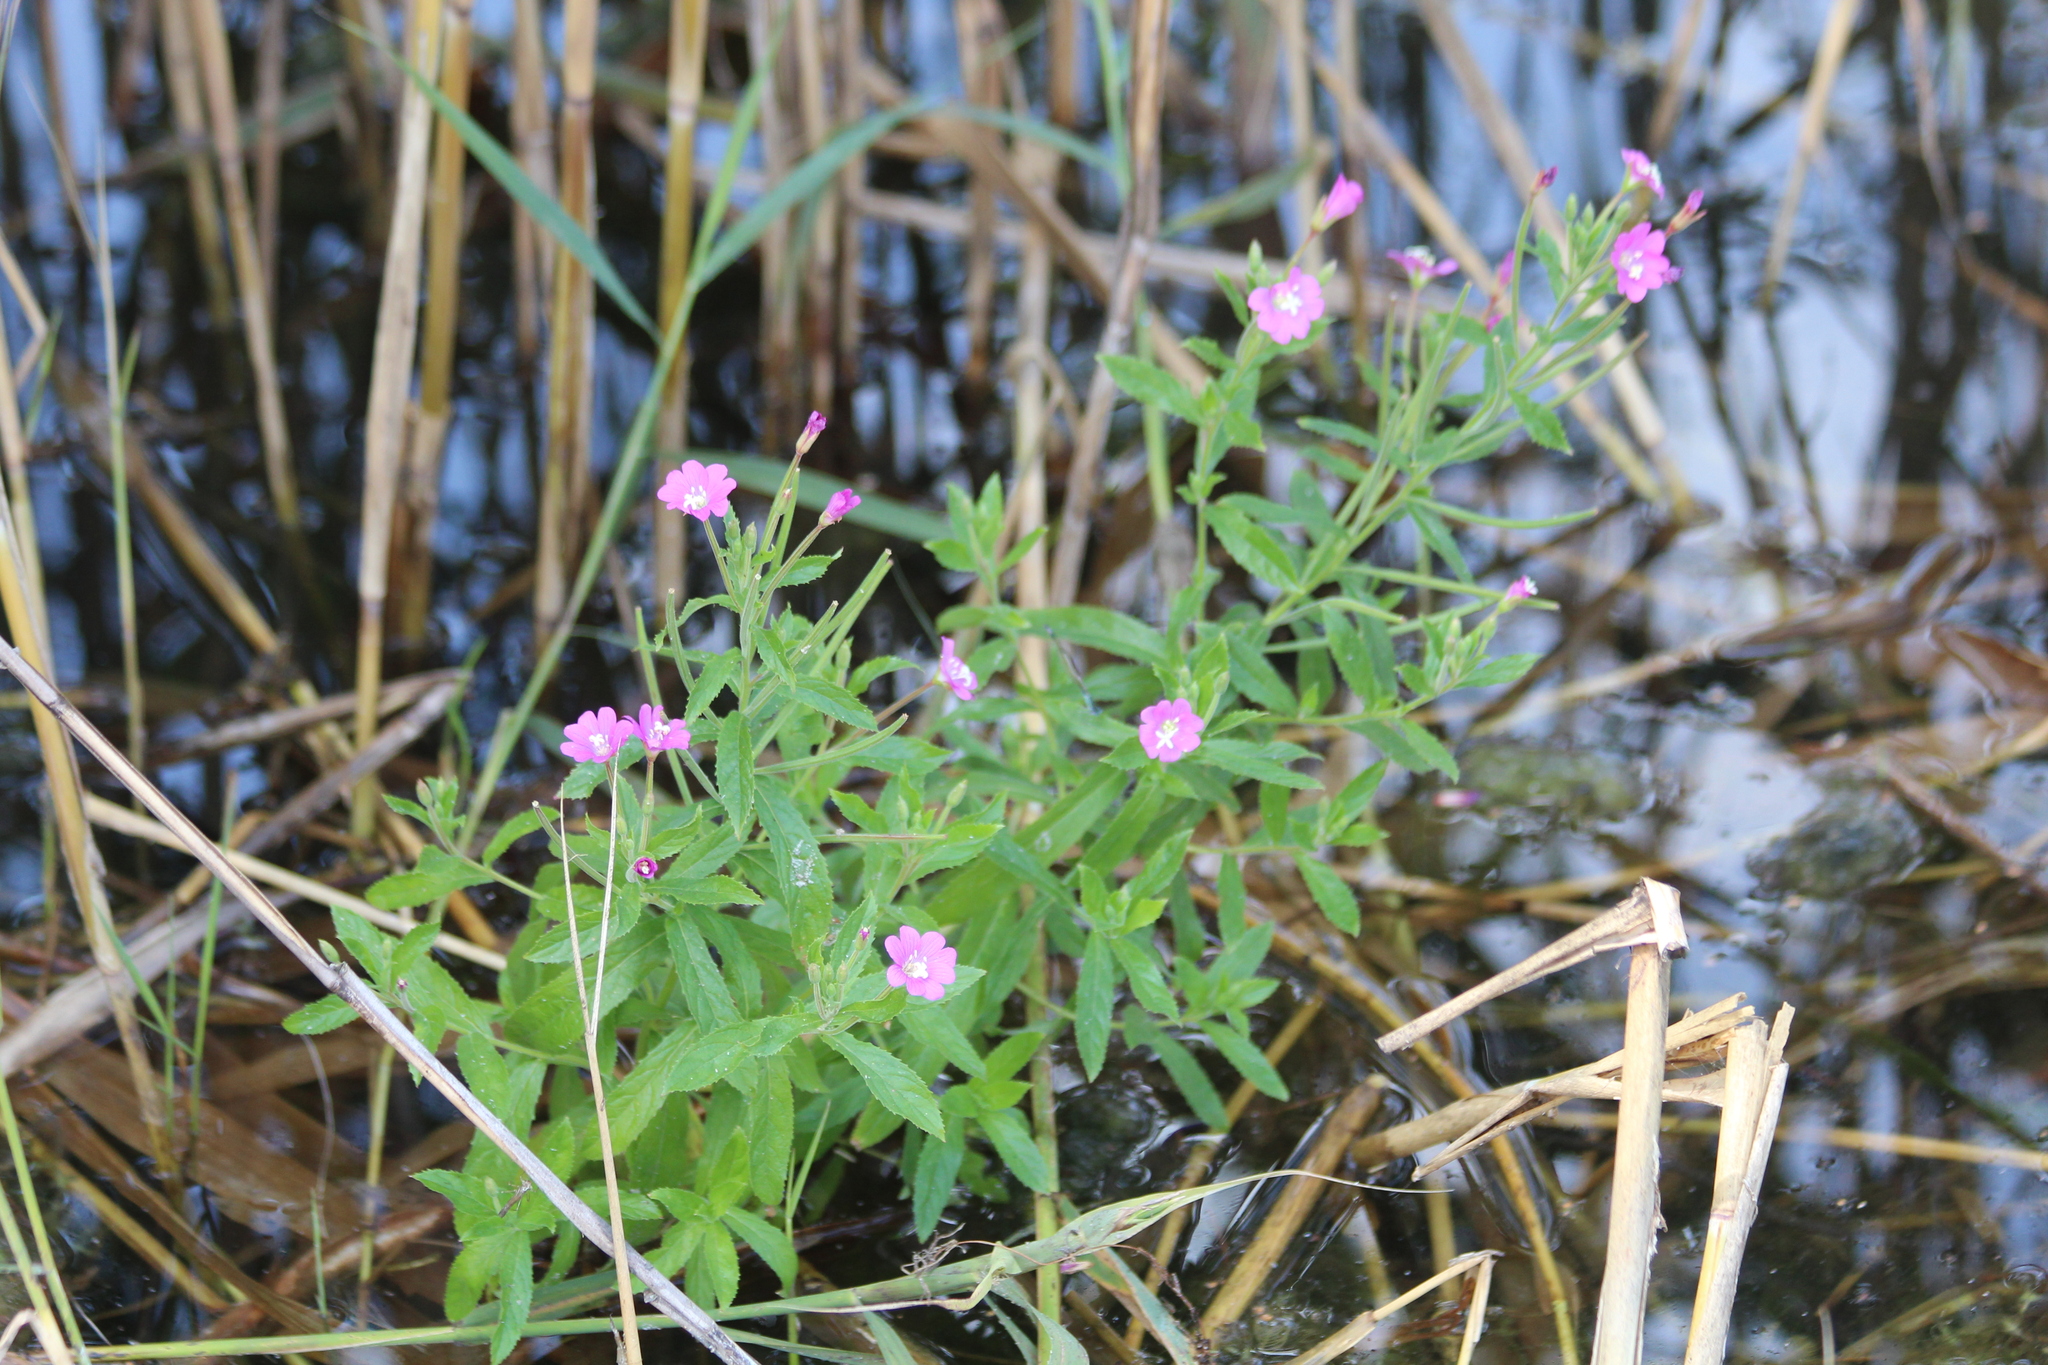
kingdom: Plantae
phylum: Tracheophyta
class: Magnoliopsida
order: Myrtales
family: Onagraceae
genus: Epilobium
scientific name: Epilobium hirsutum
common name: Great willowherb
